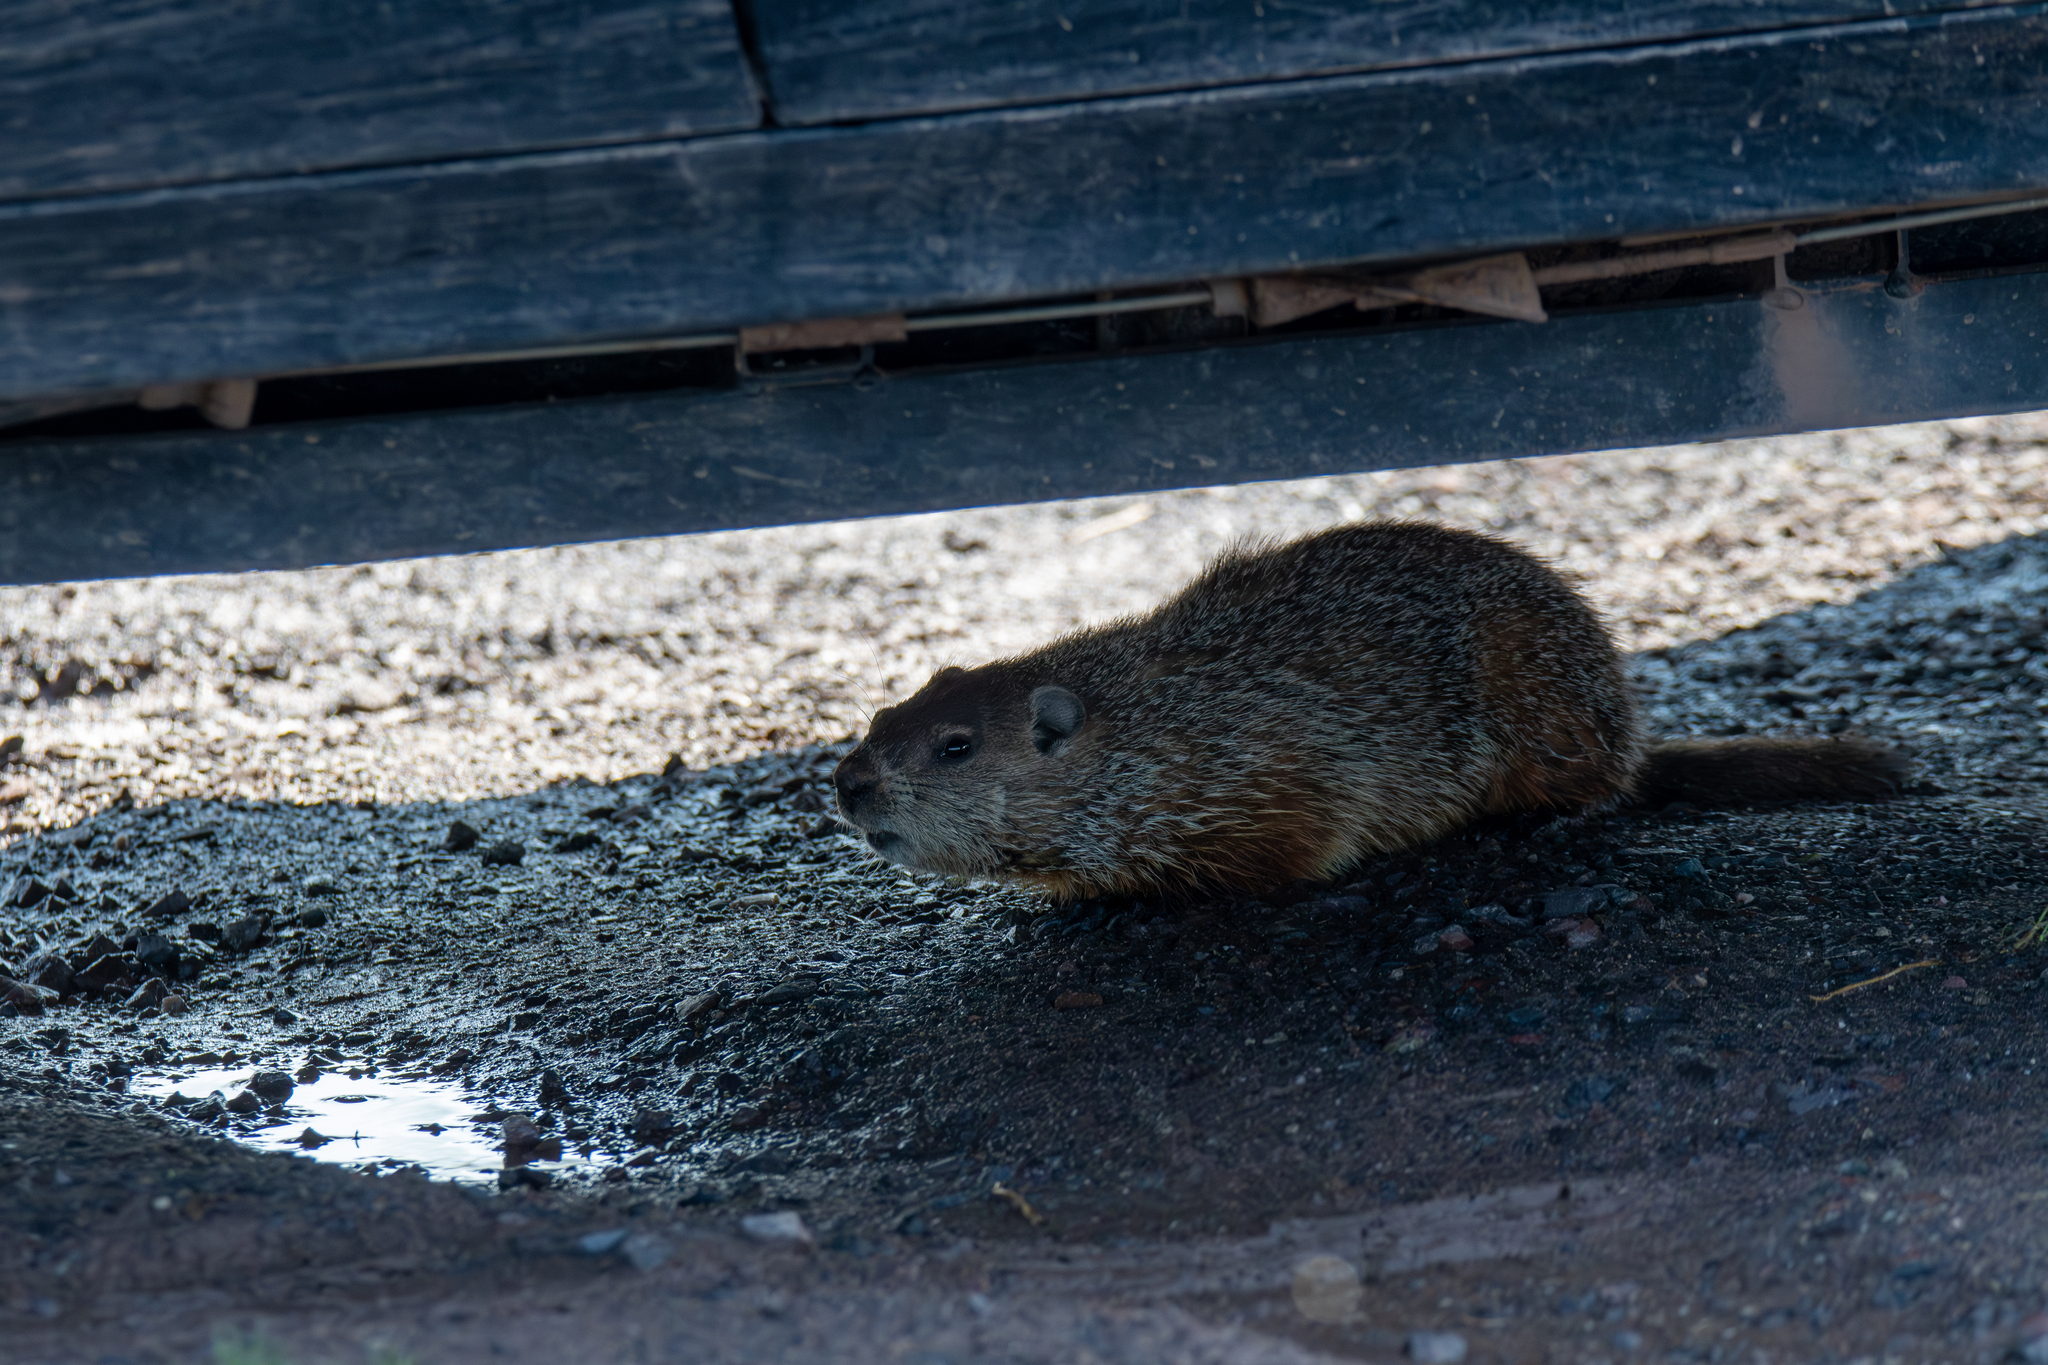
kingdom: Animalia
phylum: Chordata
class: Mammalia
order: Rodentia
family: Sciuridae
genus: Marmota
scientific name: Marmota monax
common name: Groundhog
